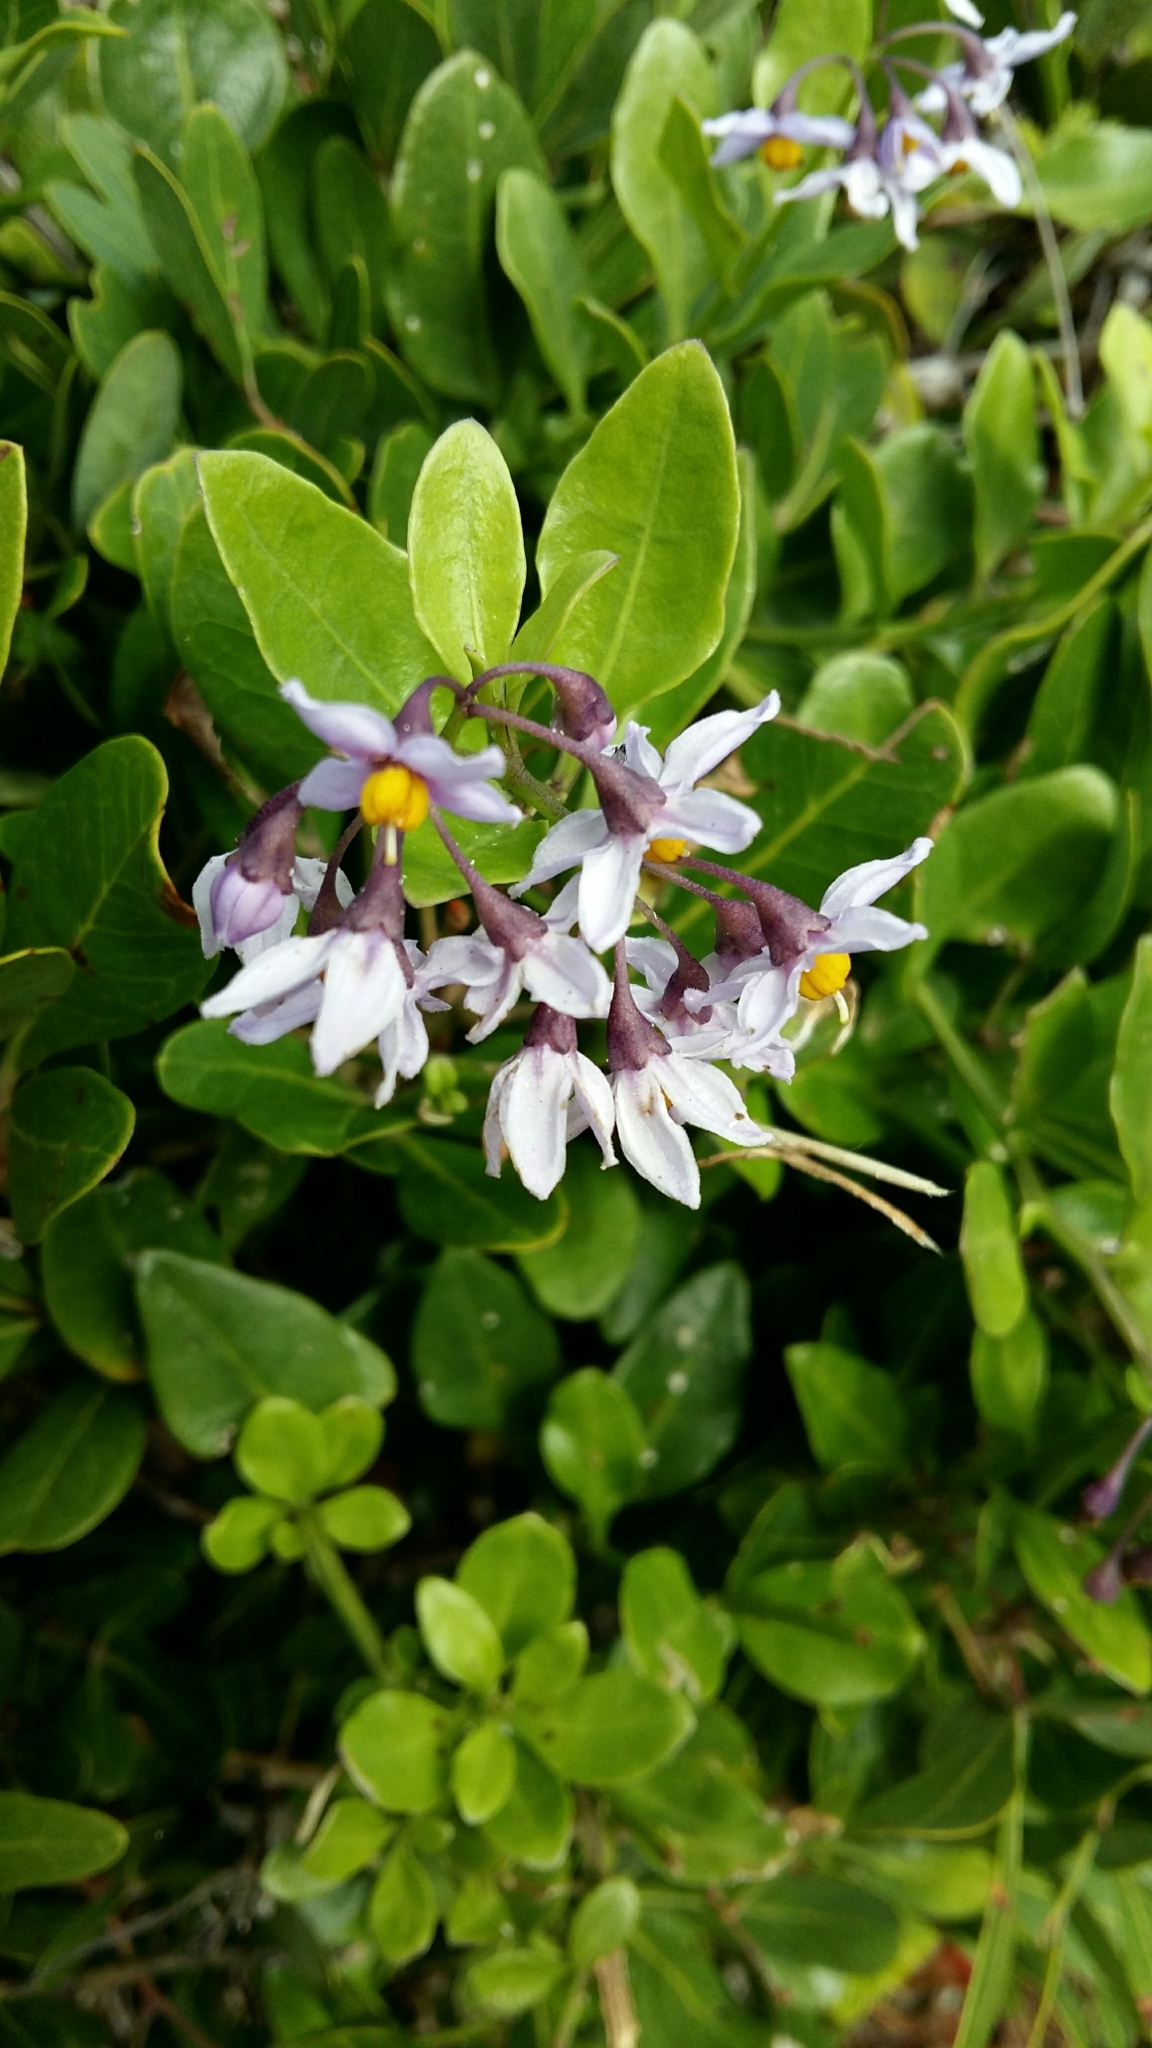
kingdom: Plantae
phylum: Tracheophyta
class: Magnoliopsida
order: Solanales
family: Solanaceae
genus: Solanum
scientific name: Solanum africanum
